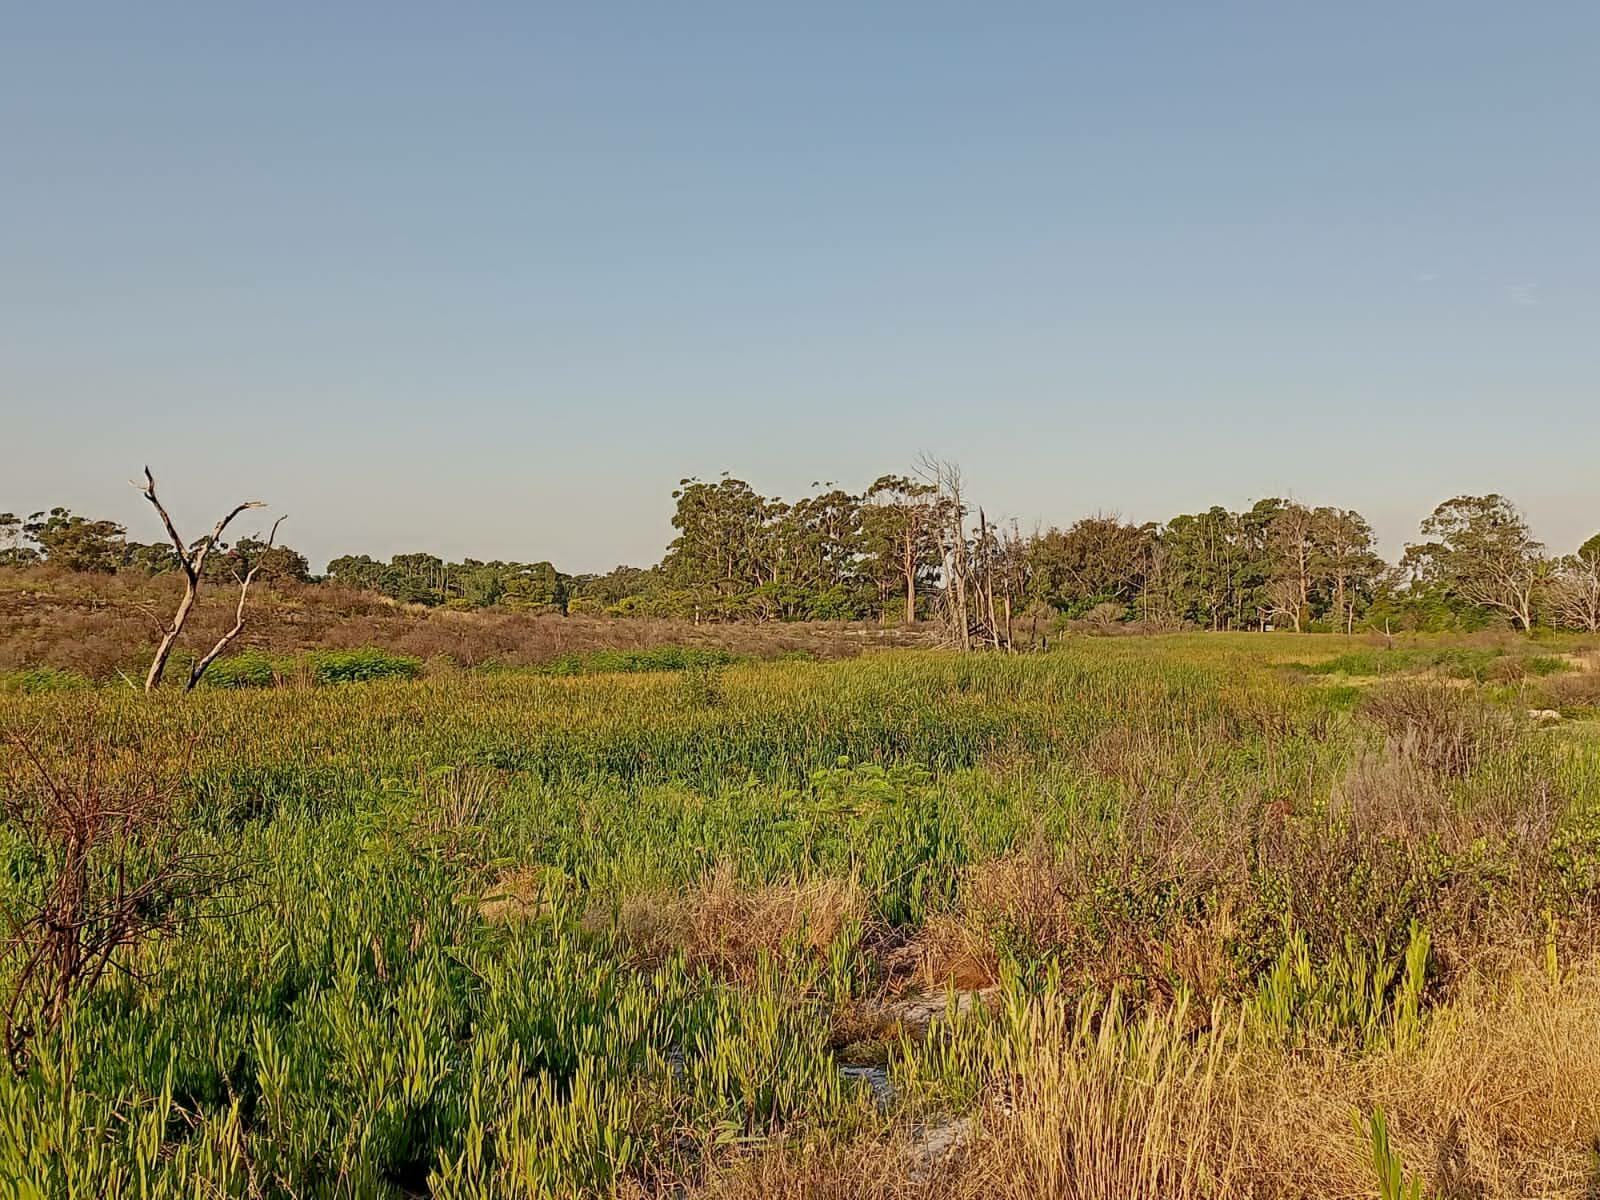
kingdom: Plantae
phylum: Tracheophyta
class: Magnoliopsida
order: Fabales
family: Fabaceae
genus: Acacia
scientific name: Acacia longifolia
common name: Sydney golden wattle
